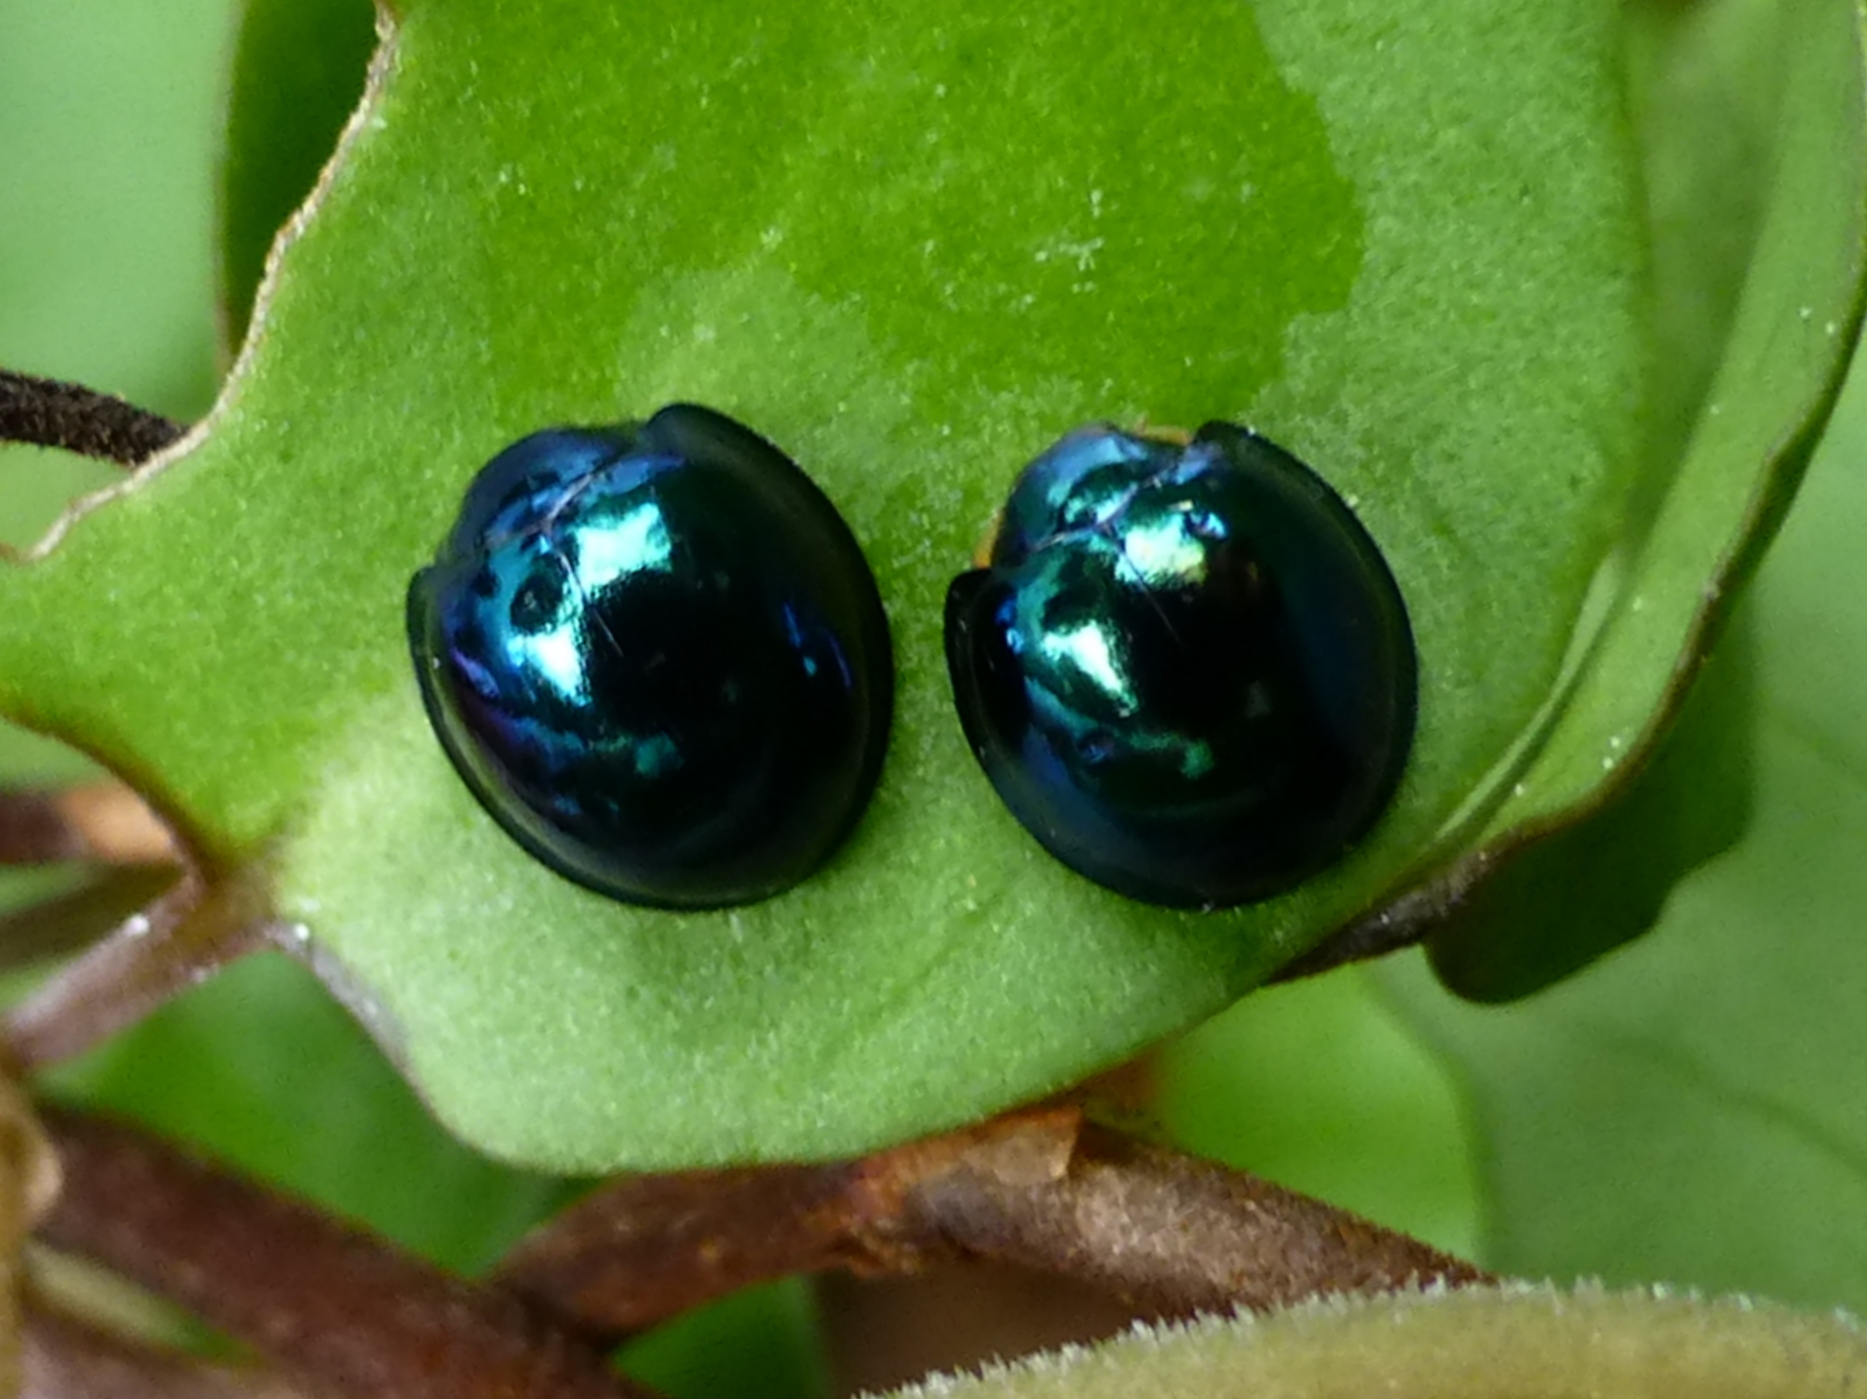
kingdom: Animalia
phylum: Arthropoda
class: Insecta
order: Coleoptera
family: Coccinellidae
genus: Halmus
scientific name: Halmus chalybeus
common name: Steel blue ladybird beetle
